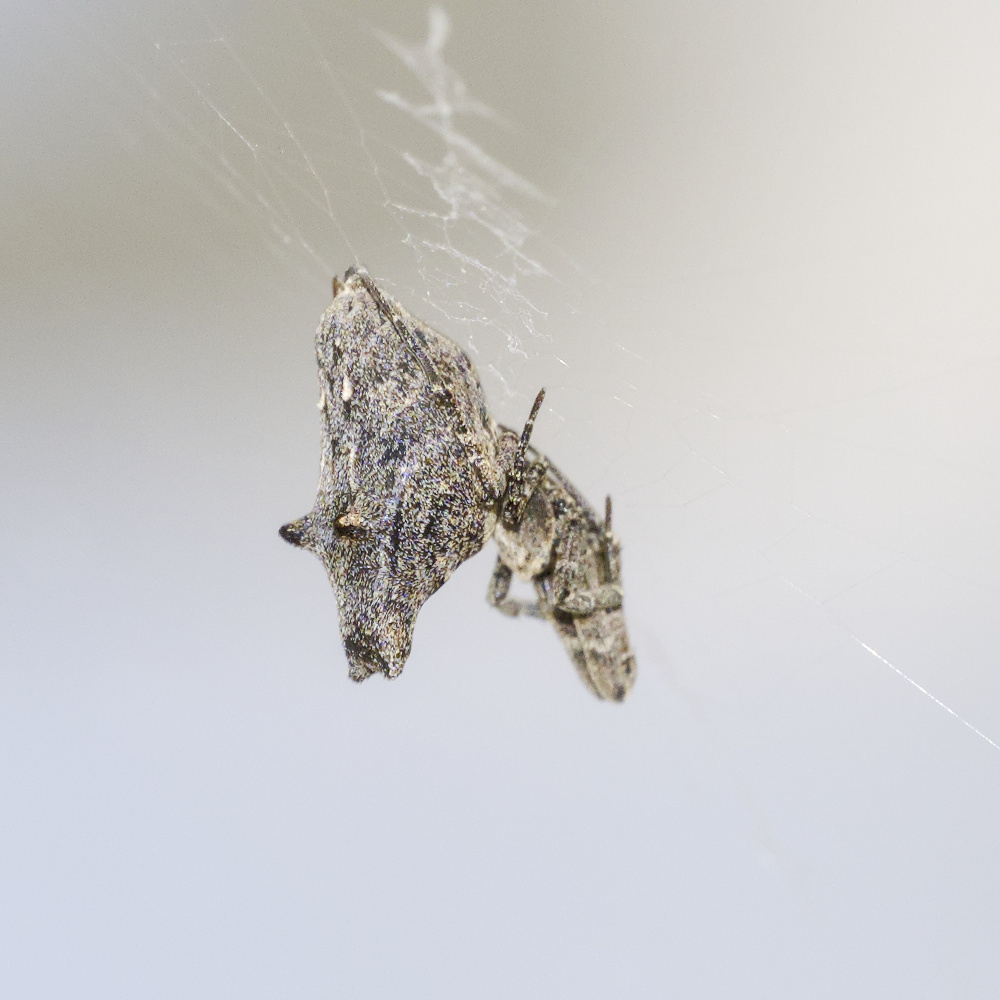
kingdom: Animalia
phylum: Arthropoda
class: Arachnida
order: Araneae
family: Uloboridae
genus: Philoponella
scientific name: Philoponella congregabilis
